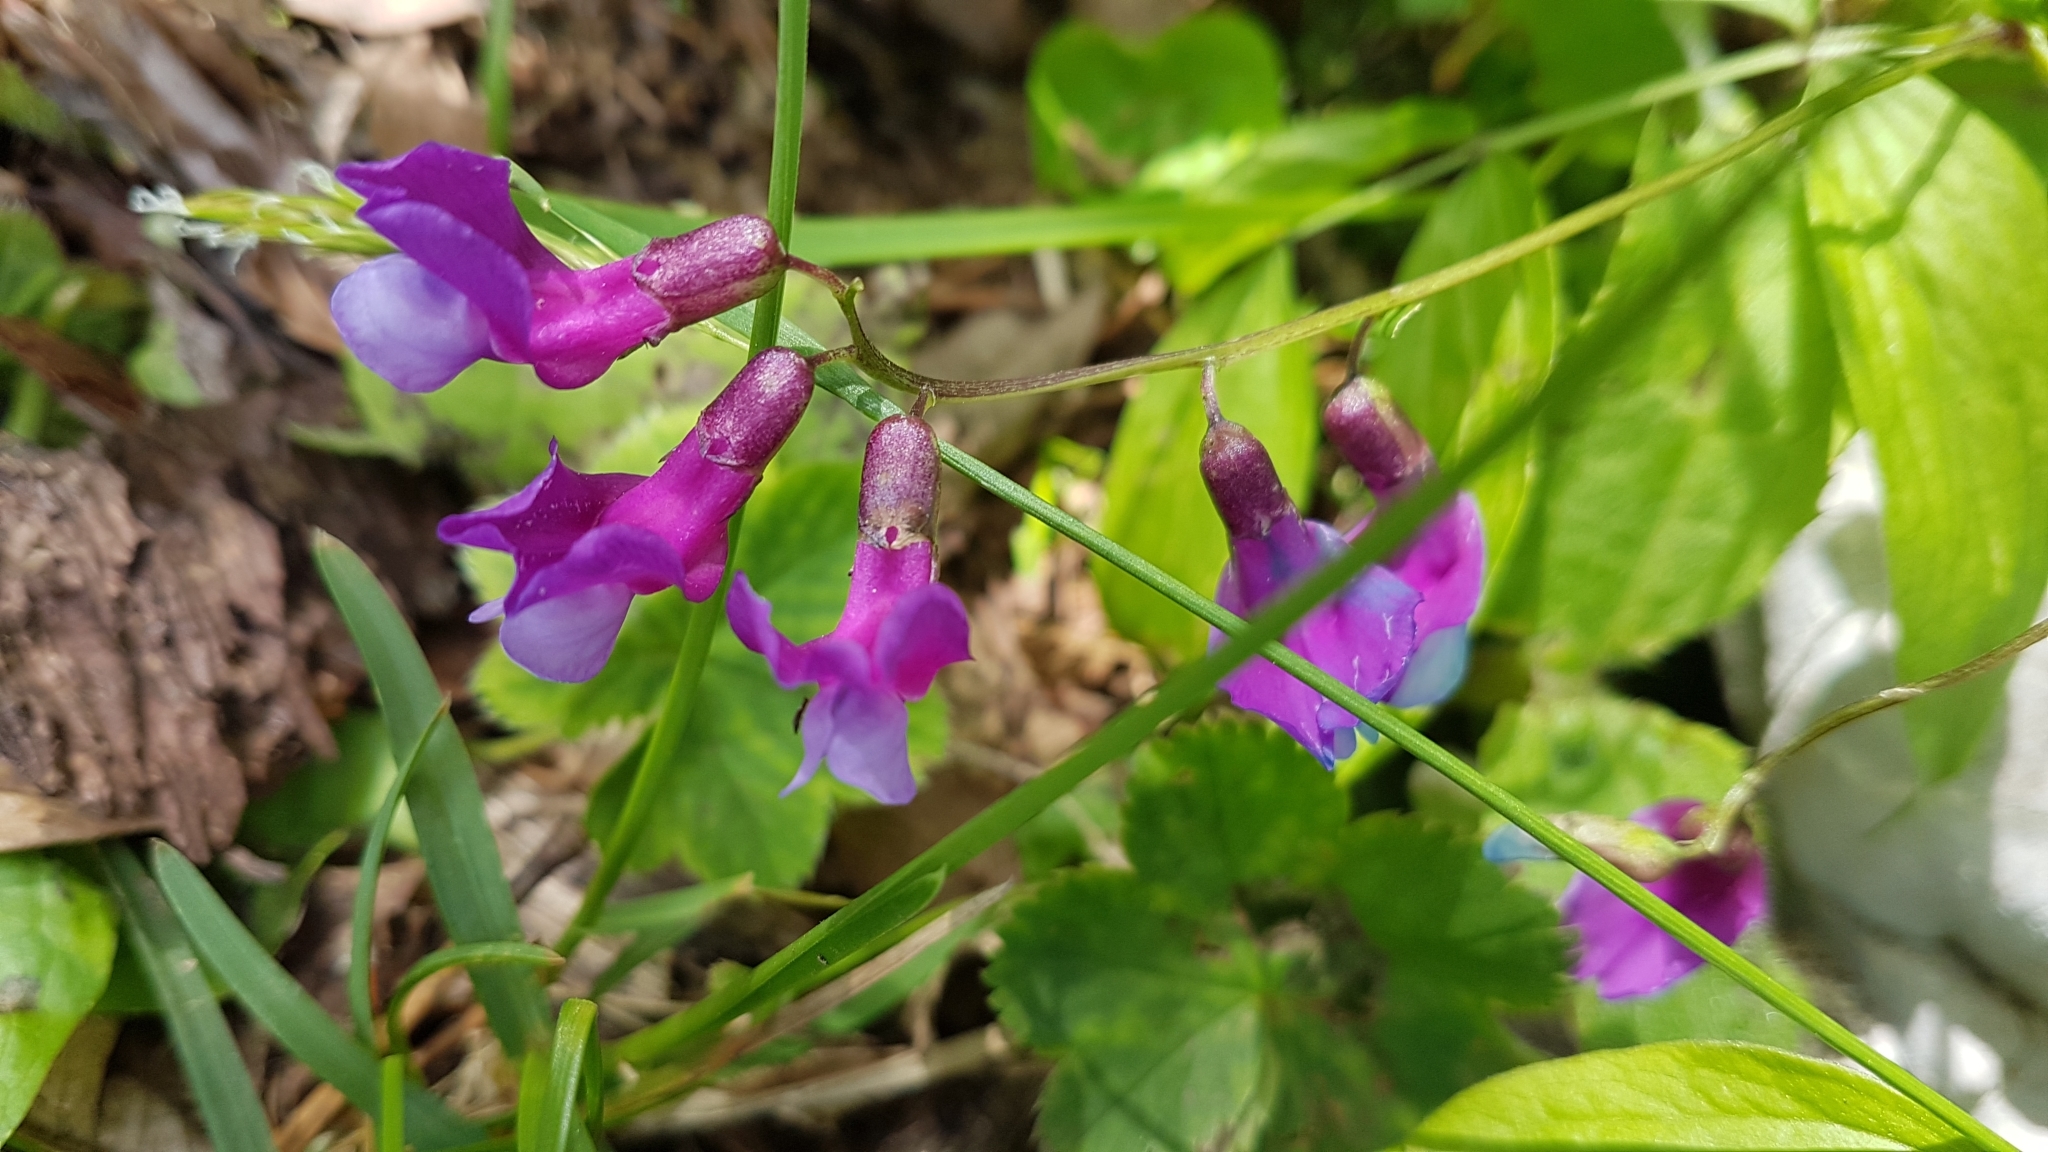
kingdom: Plantae
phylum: Tracheophyta
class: Magnoliopsida
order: Fabales
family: Fabaceae
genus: Lathyrus
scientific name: Lathyrus vernus
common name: Spring pea
